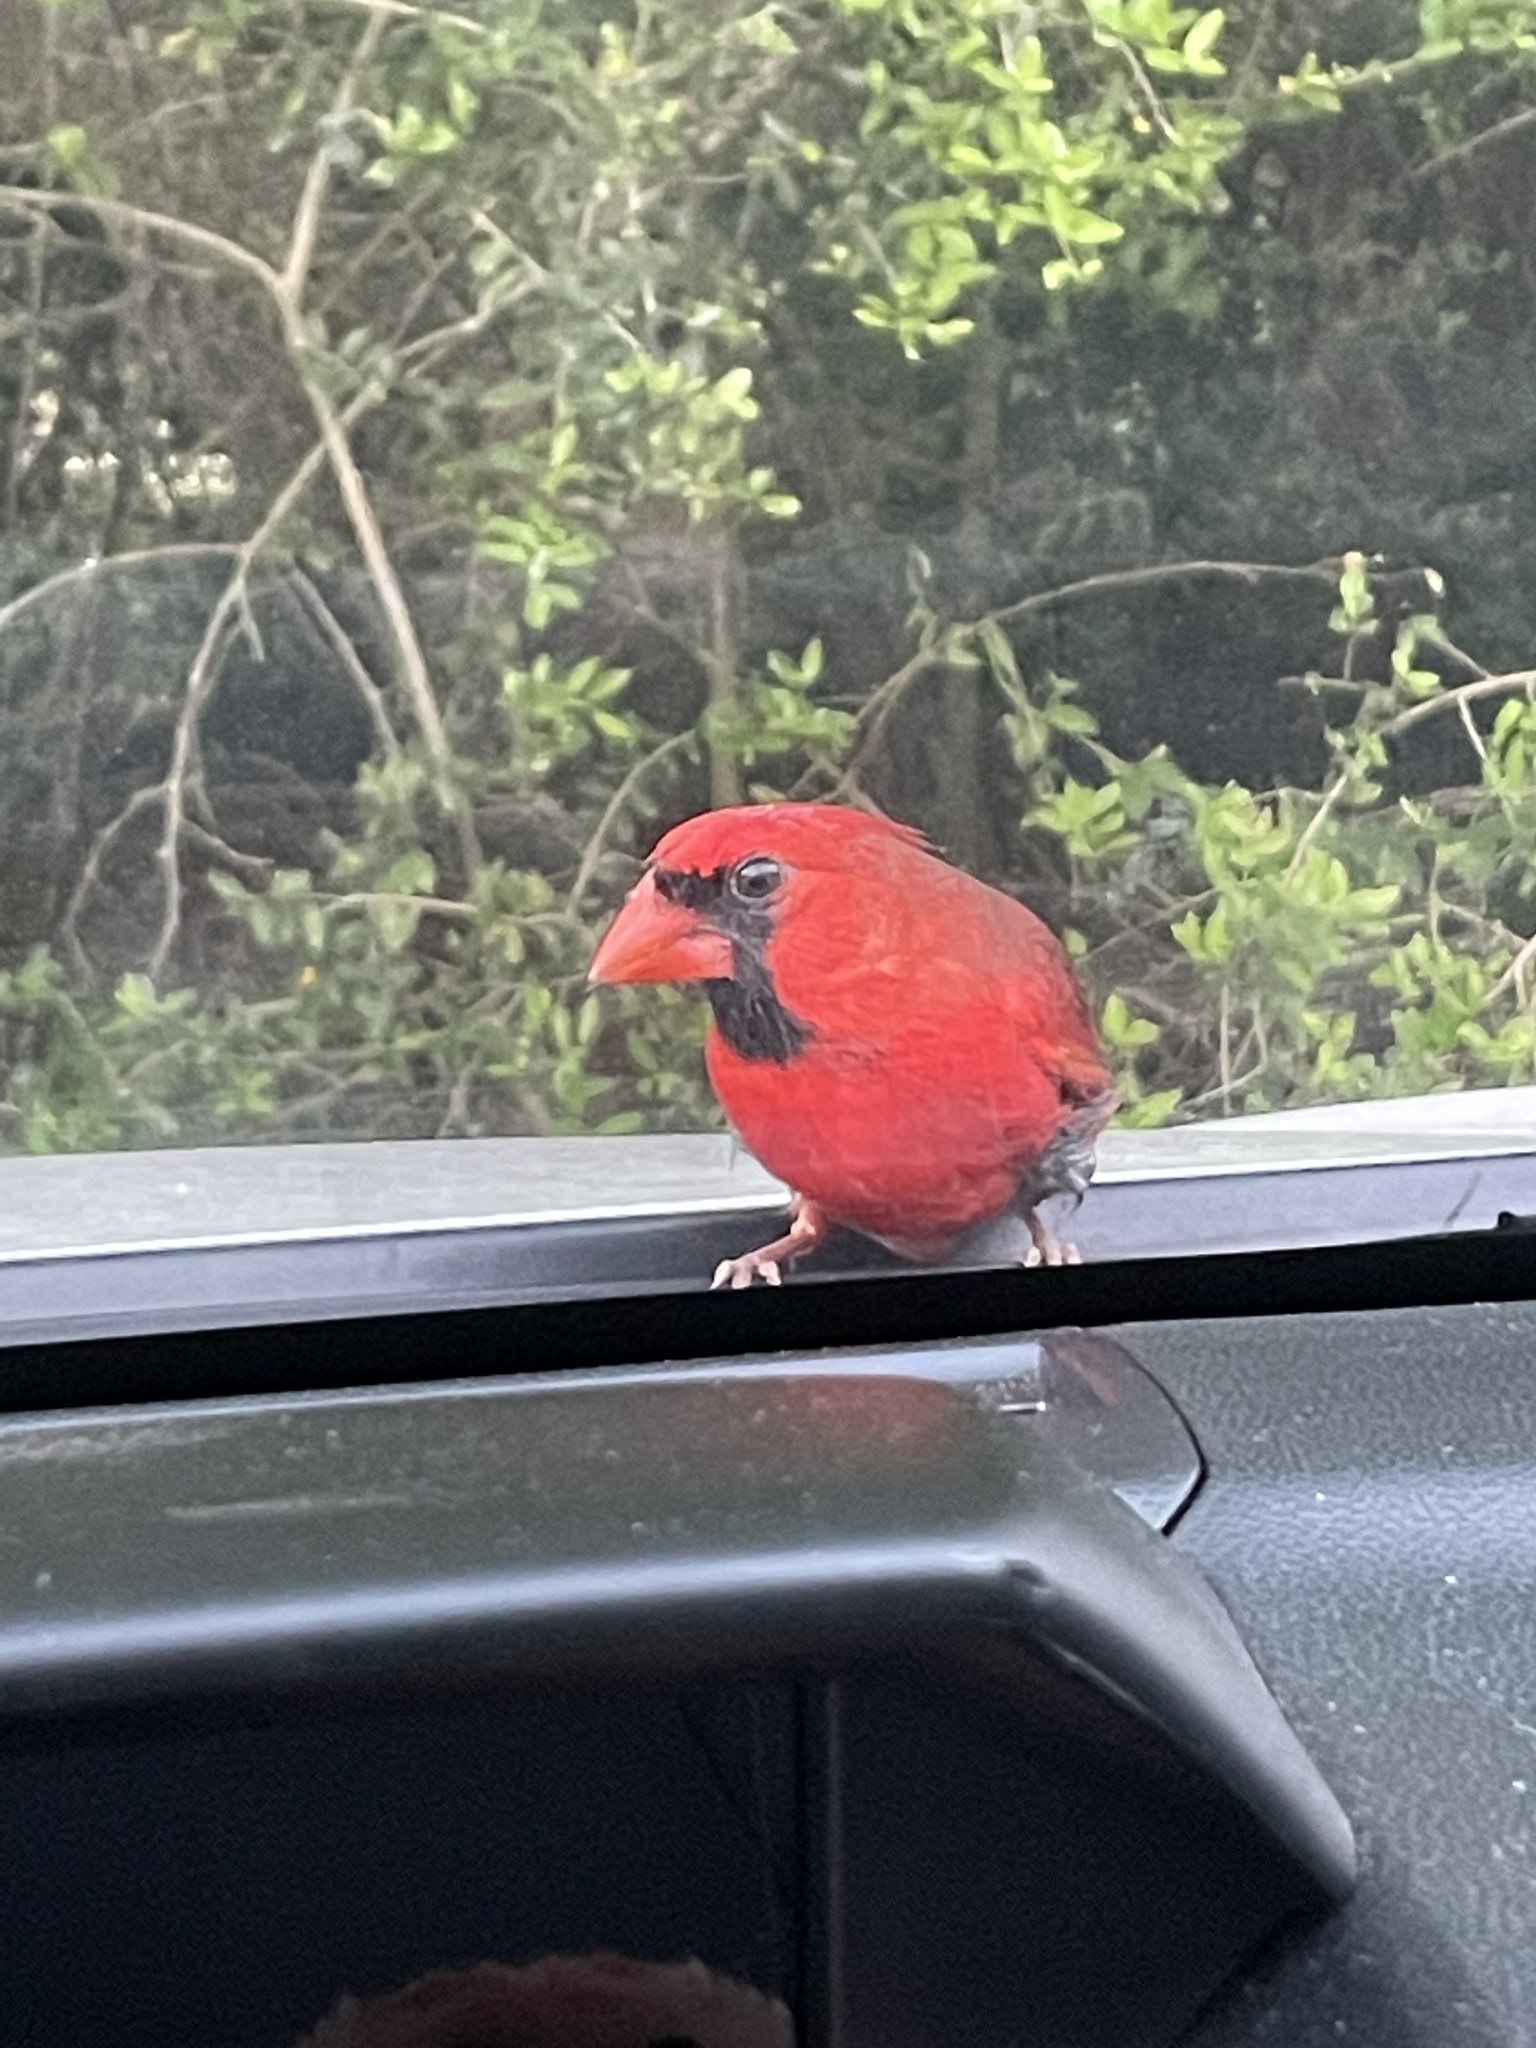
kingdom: Animalia
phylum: Chordata
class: Aves
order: Passeriformes
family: Cardinalidae
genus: Cardinalis
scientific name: Cardinalis cardinalis
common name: Northern cardinal
